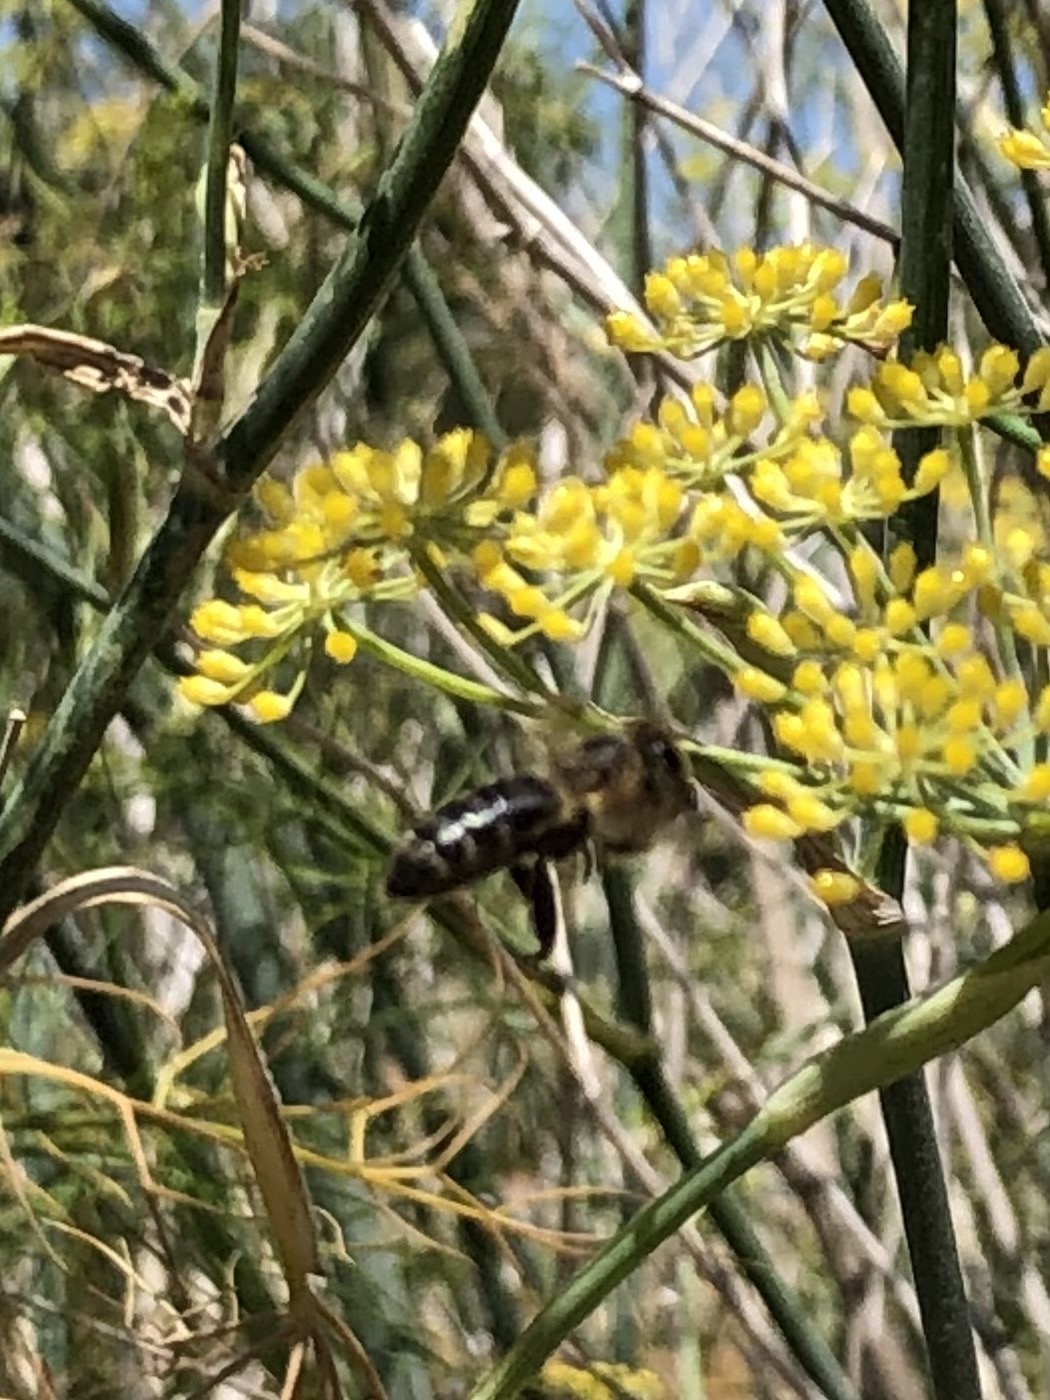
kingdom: Animalia
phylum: Arthropoda
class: Insecta
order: Hymenoptera
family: Apidae
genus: Apis
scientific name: Apis mellifera
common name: Honey bee
